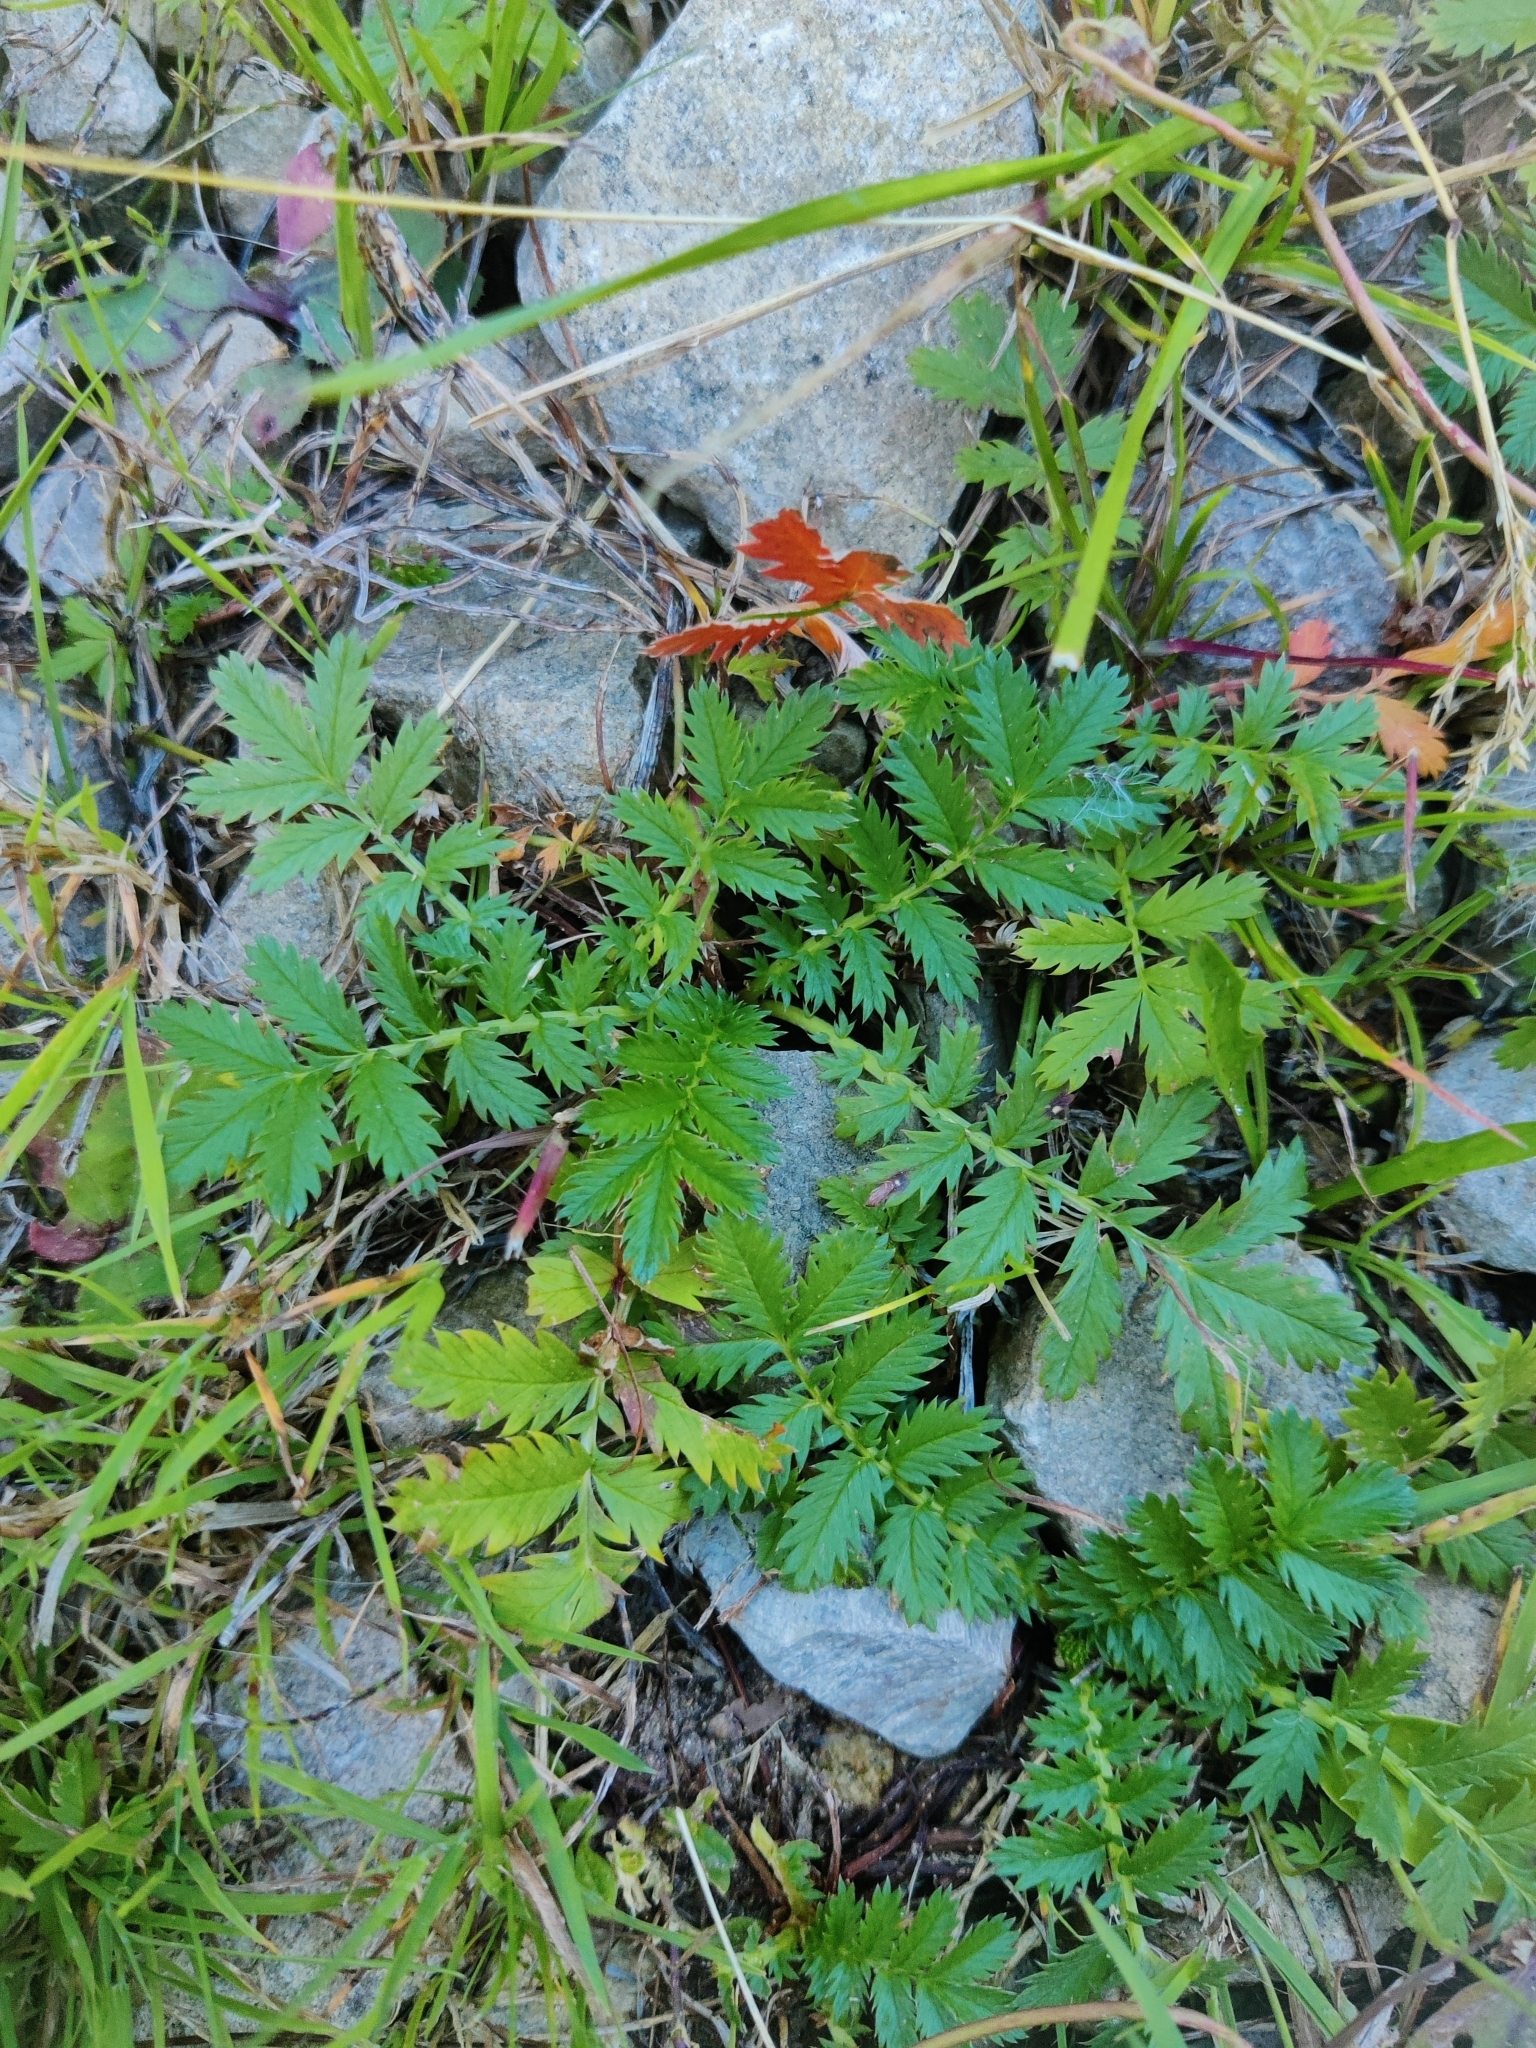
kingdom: Plantae
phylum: Tracheophyta
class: Magnoliopsida
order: Rosales
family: Rosaceae
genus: Argentina
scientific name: Argentina anserina
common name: Common silverweed
